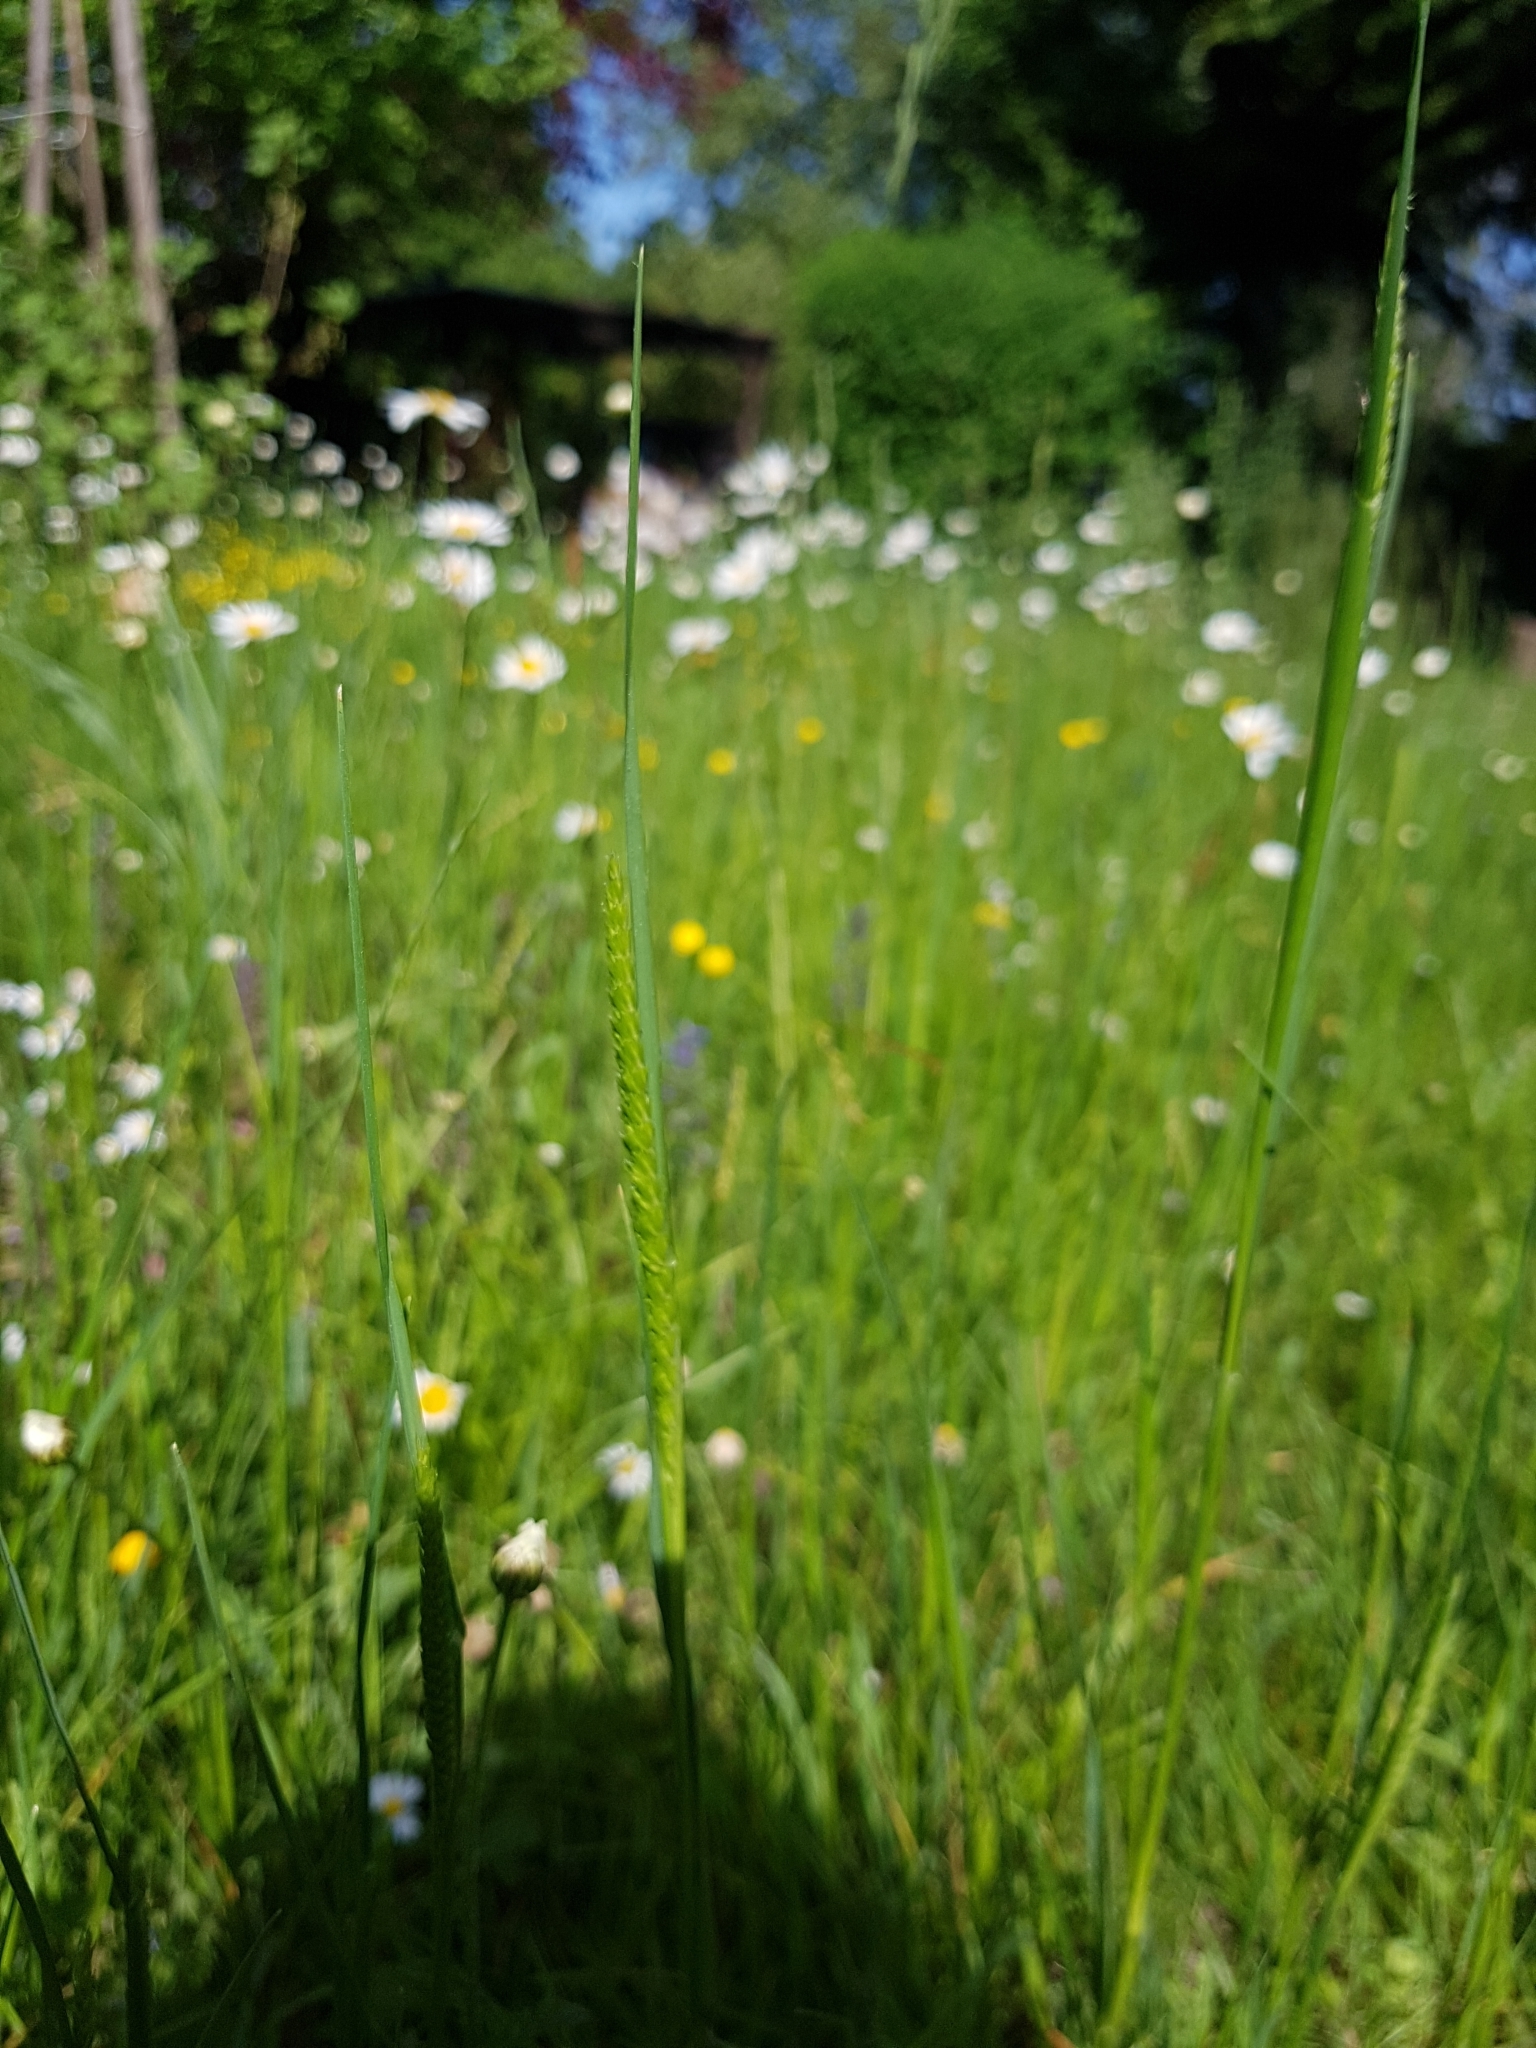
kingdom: Plantae
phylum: Tracheophyta
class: Liliopsida
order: Poales
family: Poaceae
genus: Cynosurus
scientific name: Cynosurus cristatus
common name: Crested dog's-tail
